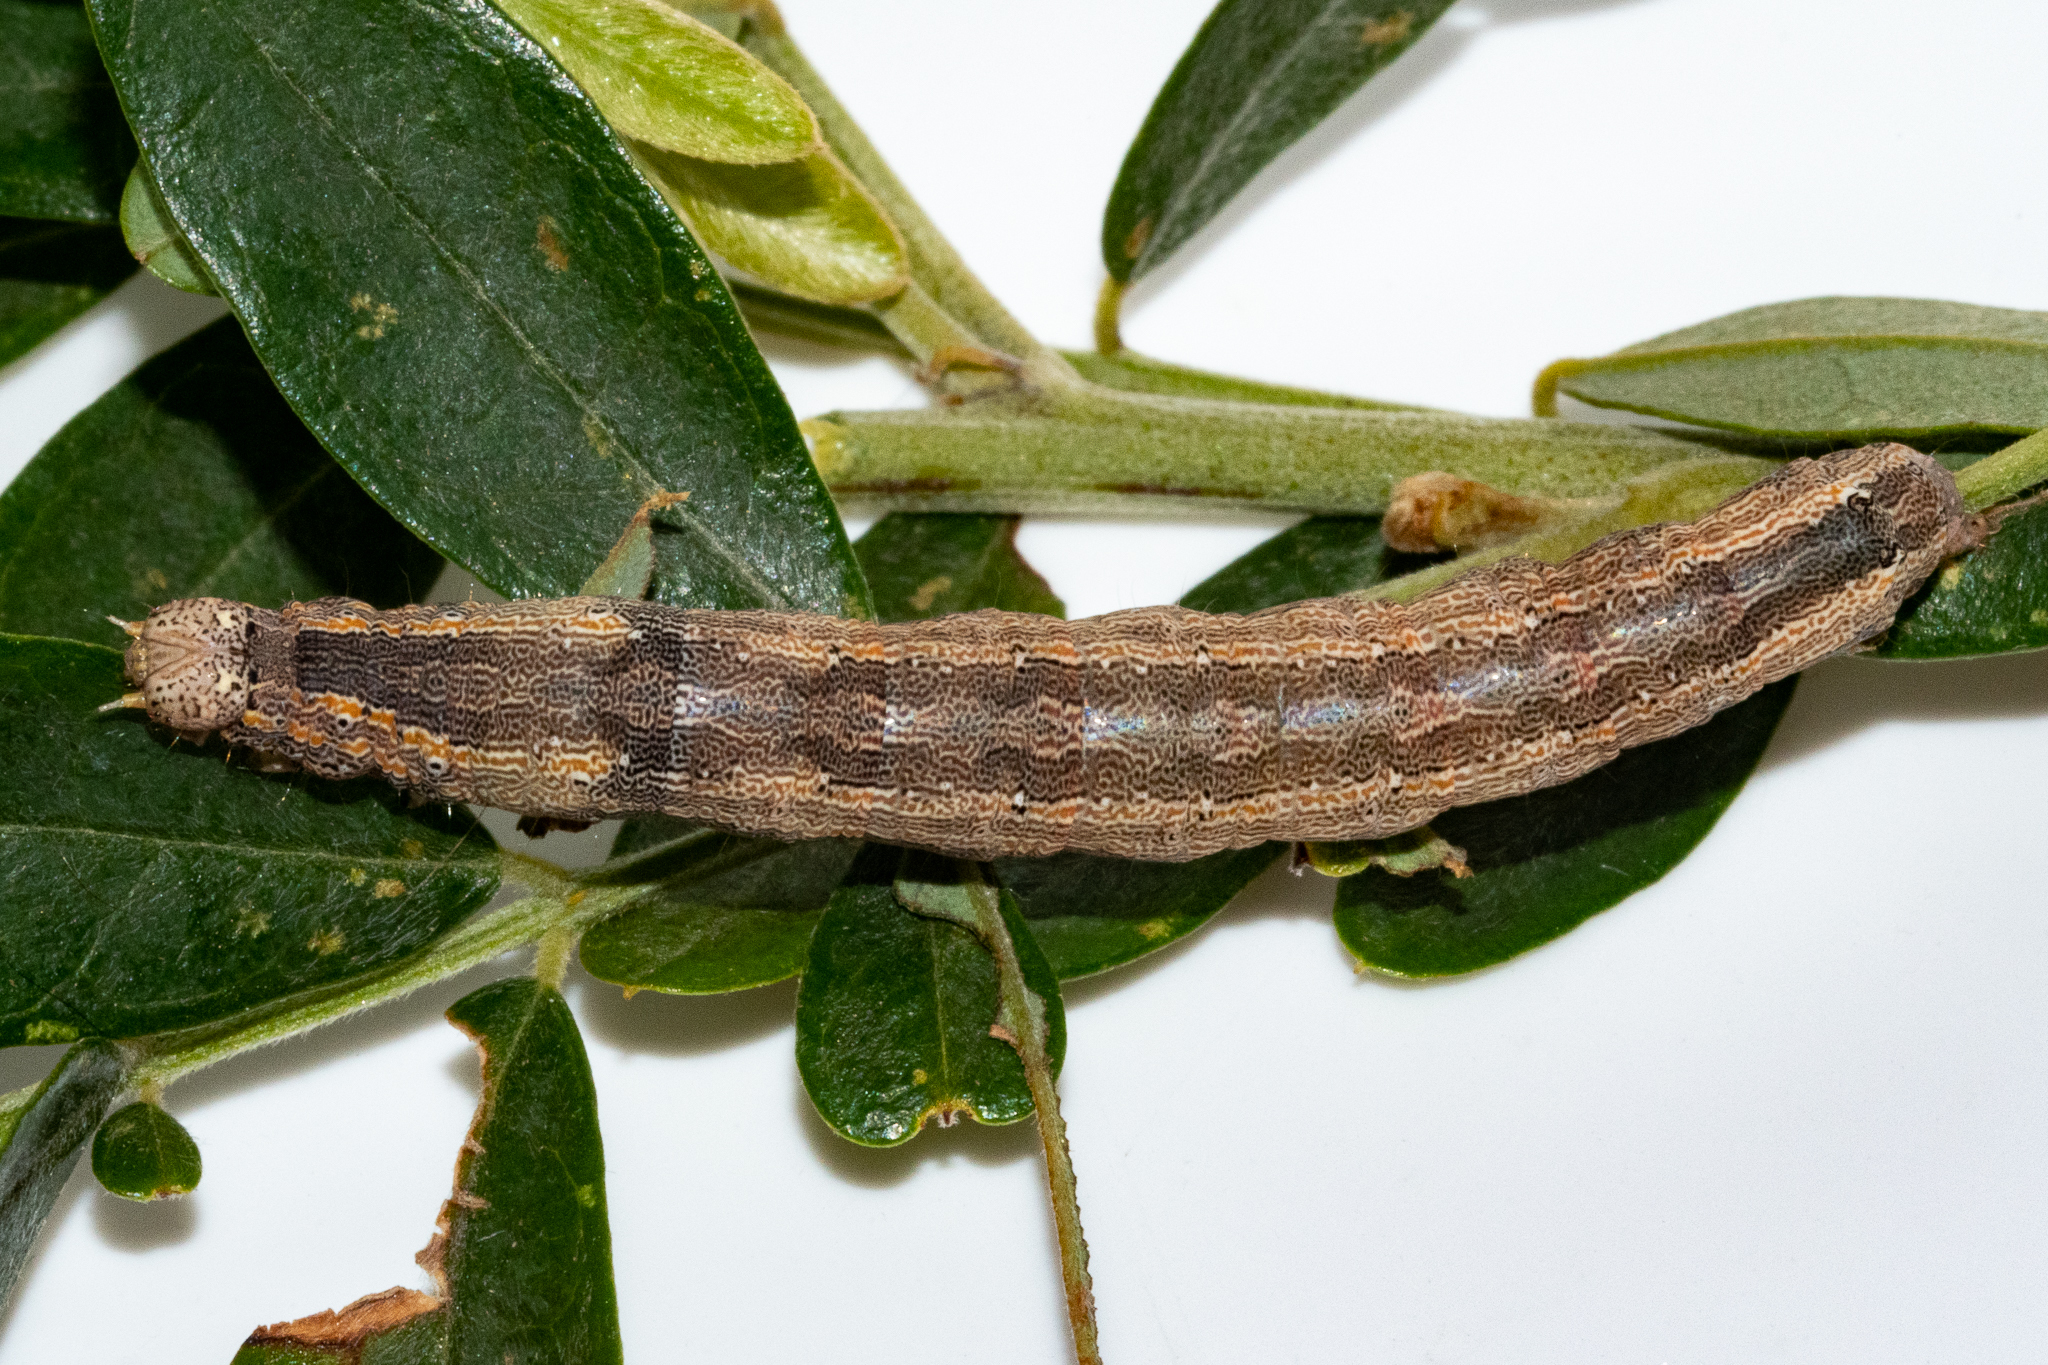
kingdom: Animalia
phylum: Arthropoda
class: Insecta
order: Lepidoptera
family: Erebidae
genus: Achaea
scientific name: Achaea indeterminata
